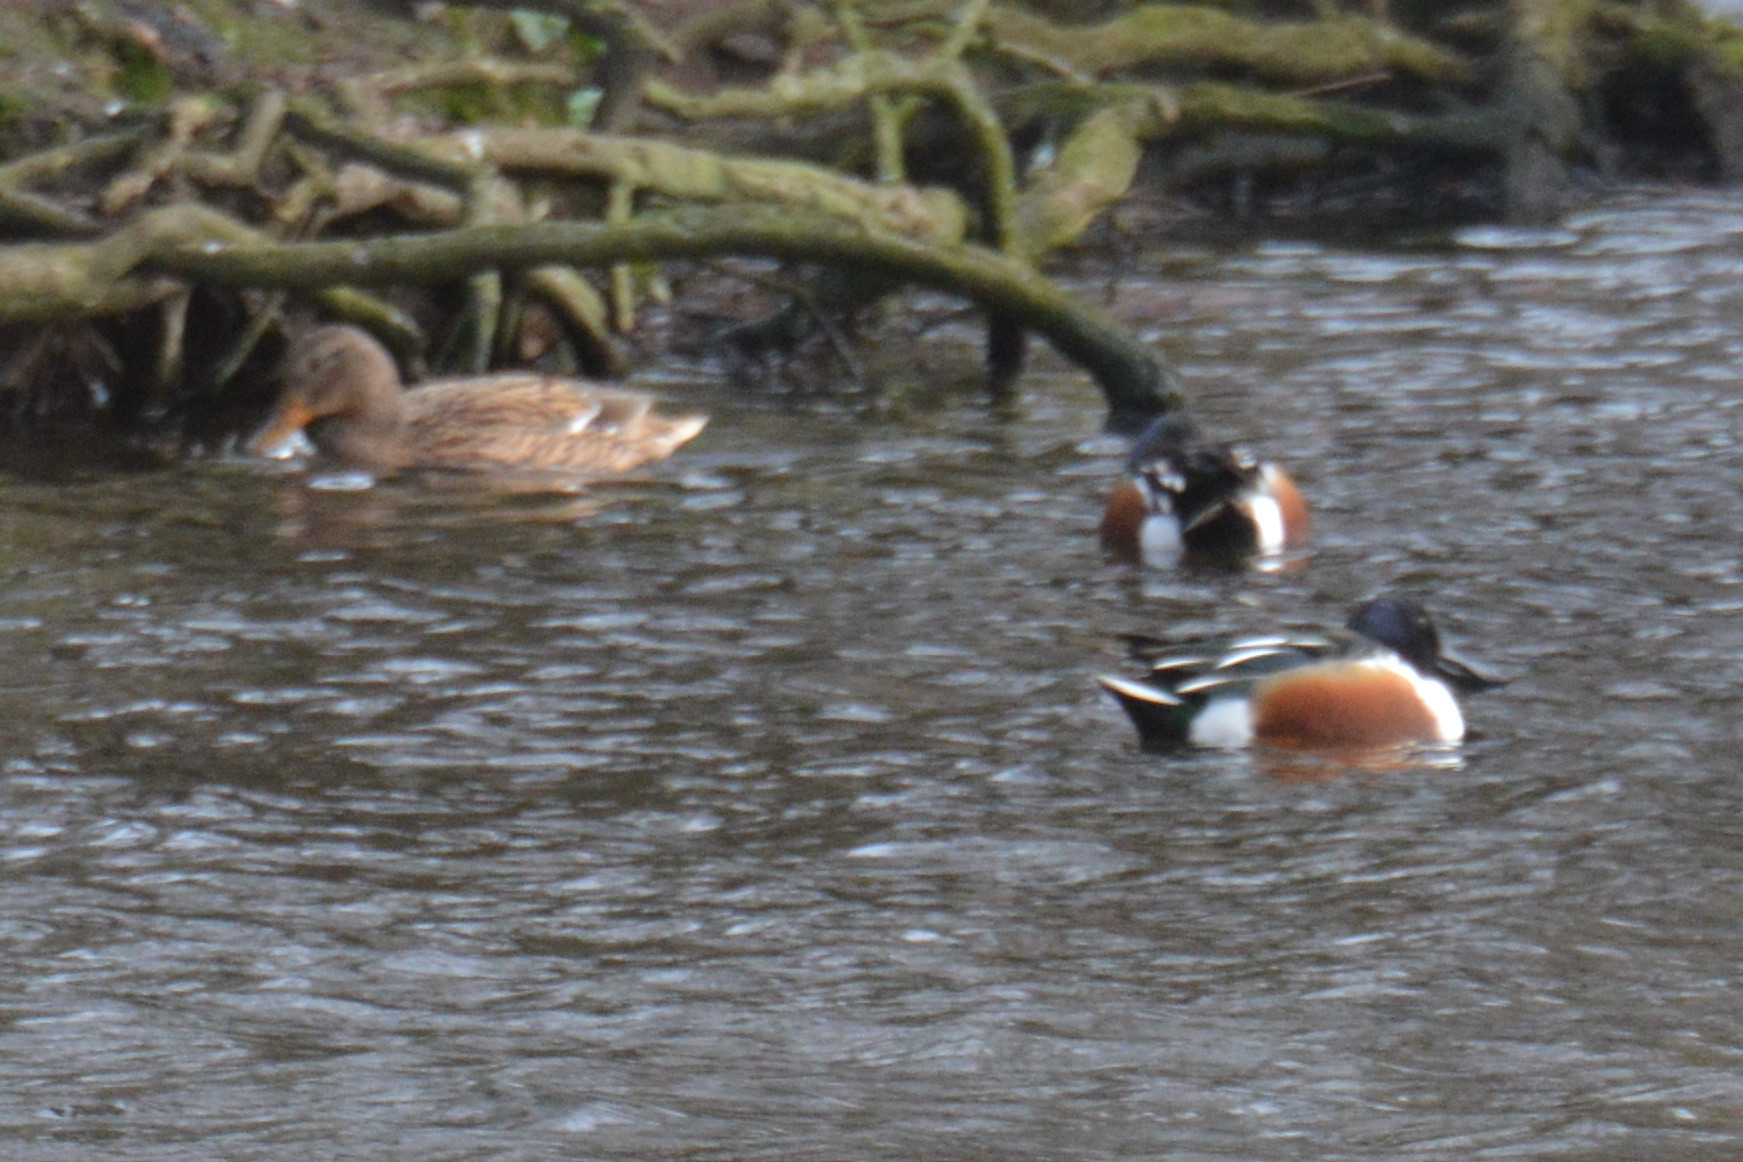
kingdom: Animalia
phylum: Chordata
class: Aves
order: Anseriformes
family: Anatidae
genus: Spatula
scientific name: Spatula clypeata
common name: Northern shoveler
